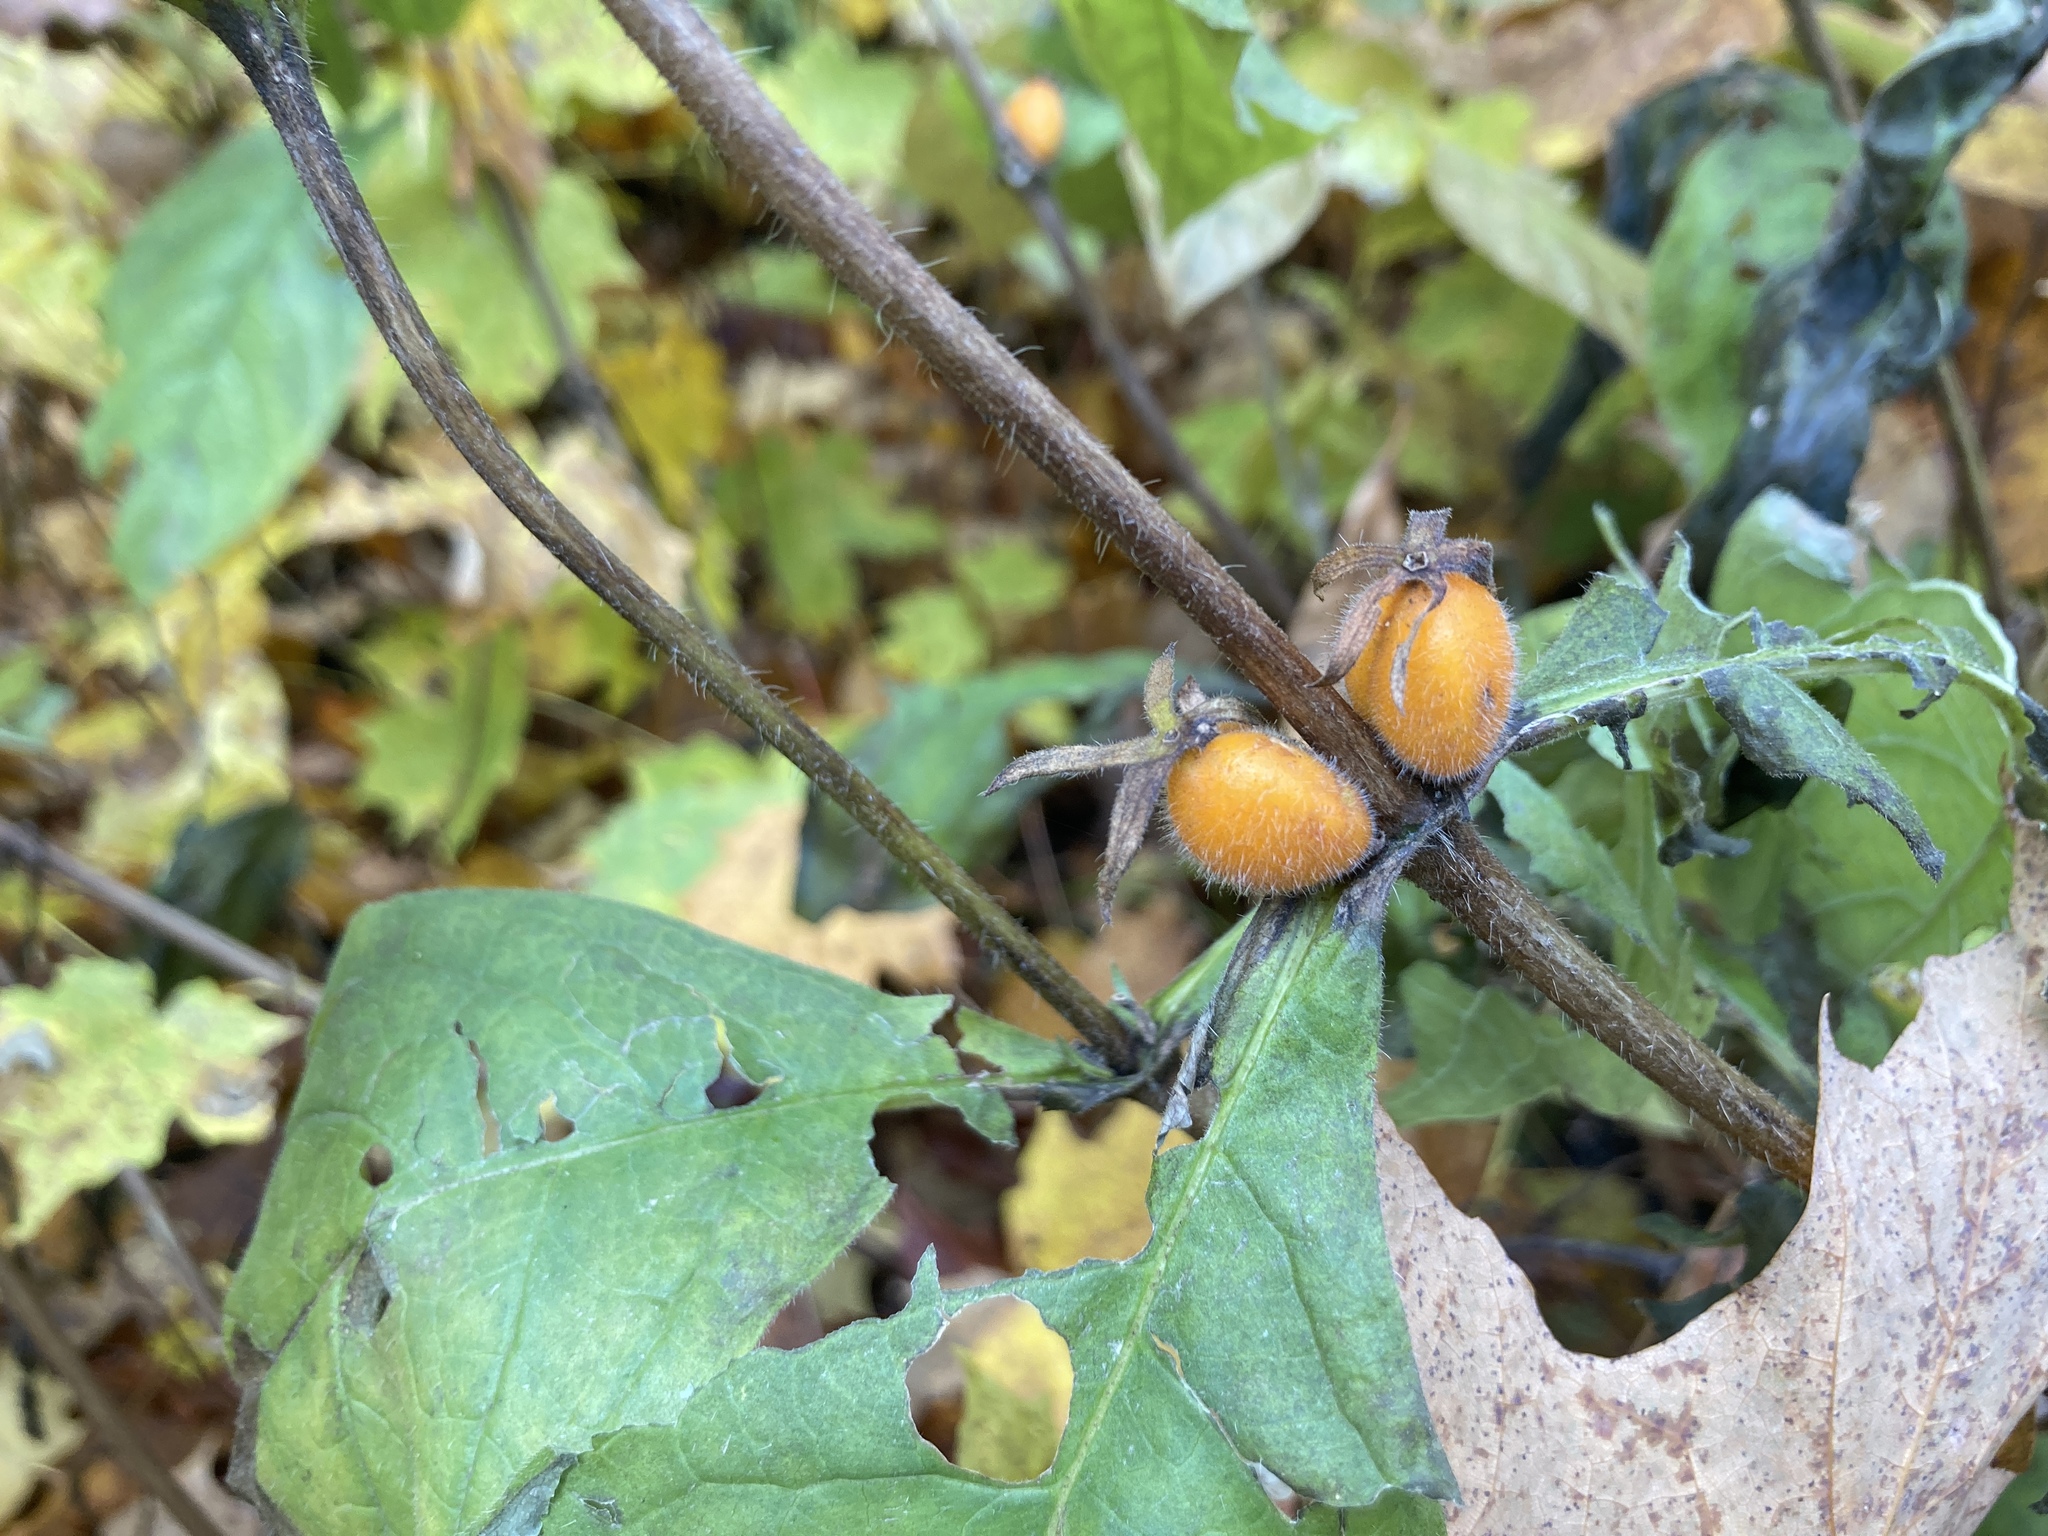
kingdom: Plantae
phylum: Tracheophyta
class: Magnoliopsida
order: Dipsacales
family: Caprifoliaceae
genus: Triosteum
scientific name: Triosteum aurantiacum
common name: Coffee tinker's-weed
